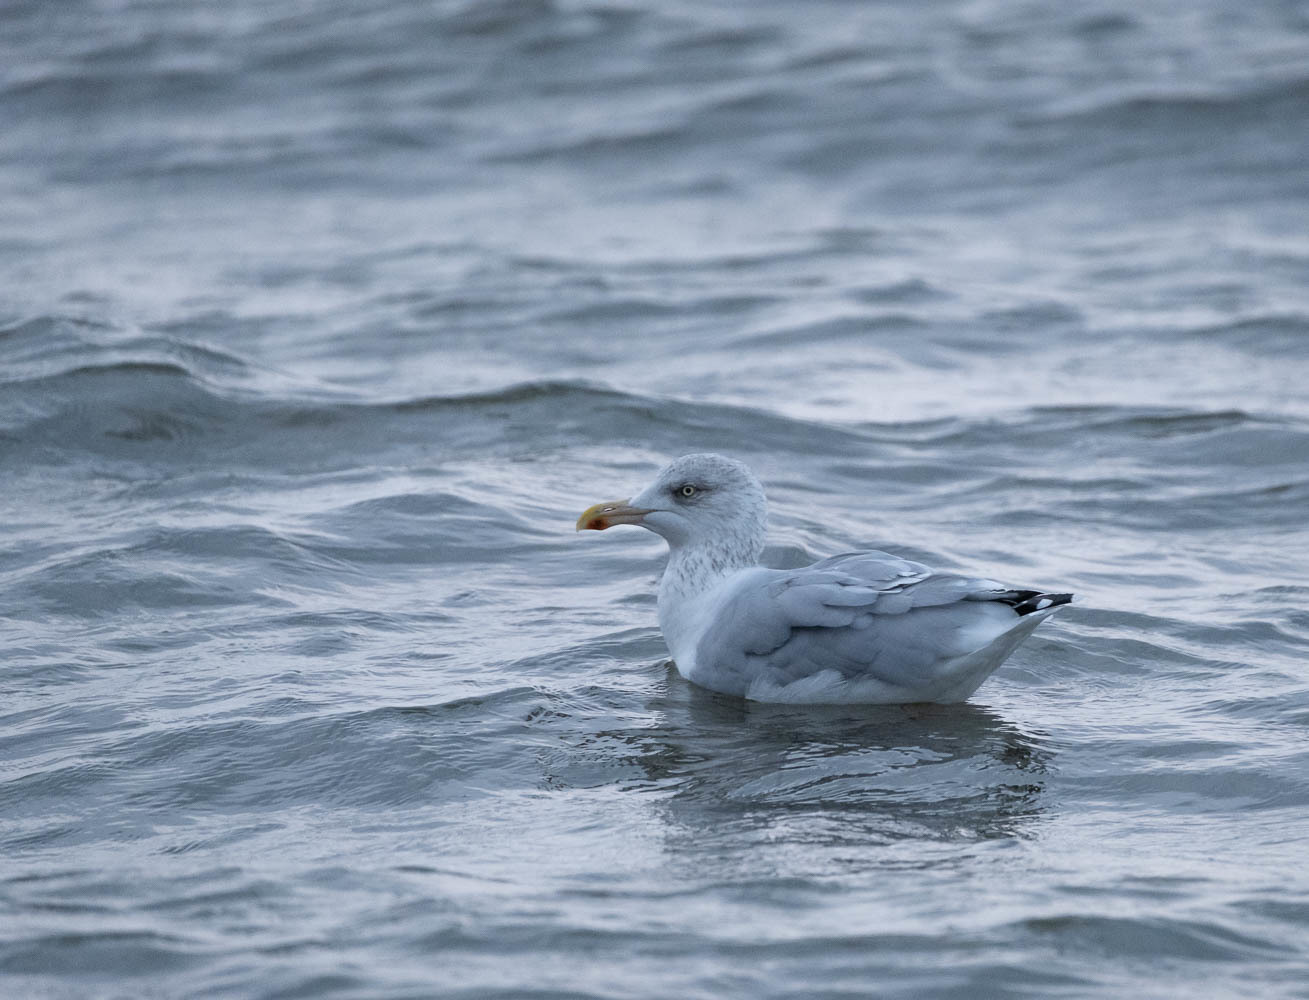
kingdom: Animalia
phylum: Chordata
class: Aves
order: Charadriiformes
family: Laridae
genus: Larus
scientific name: Larus argentatus
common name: Herring gull
